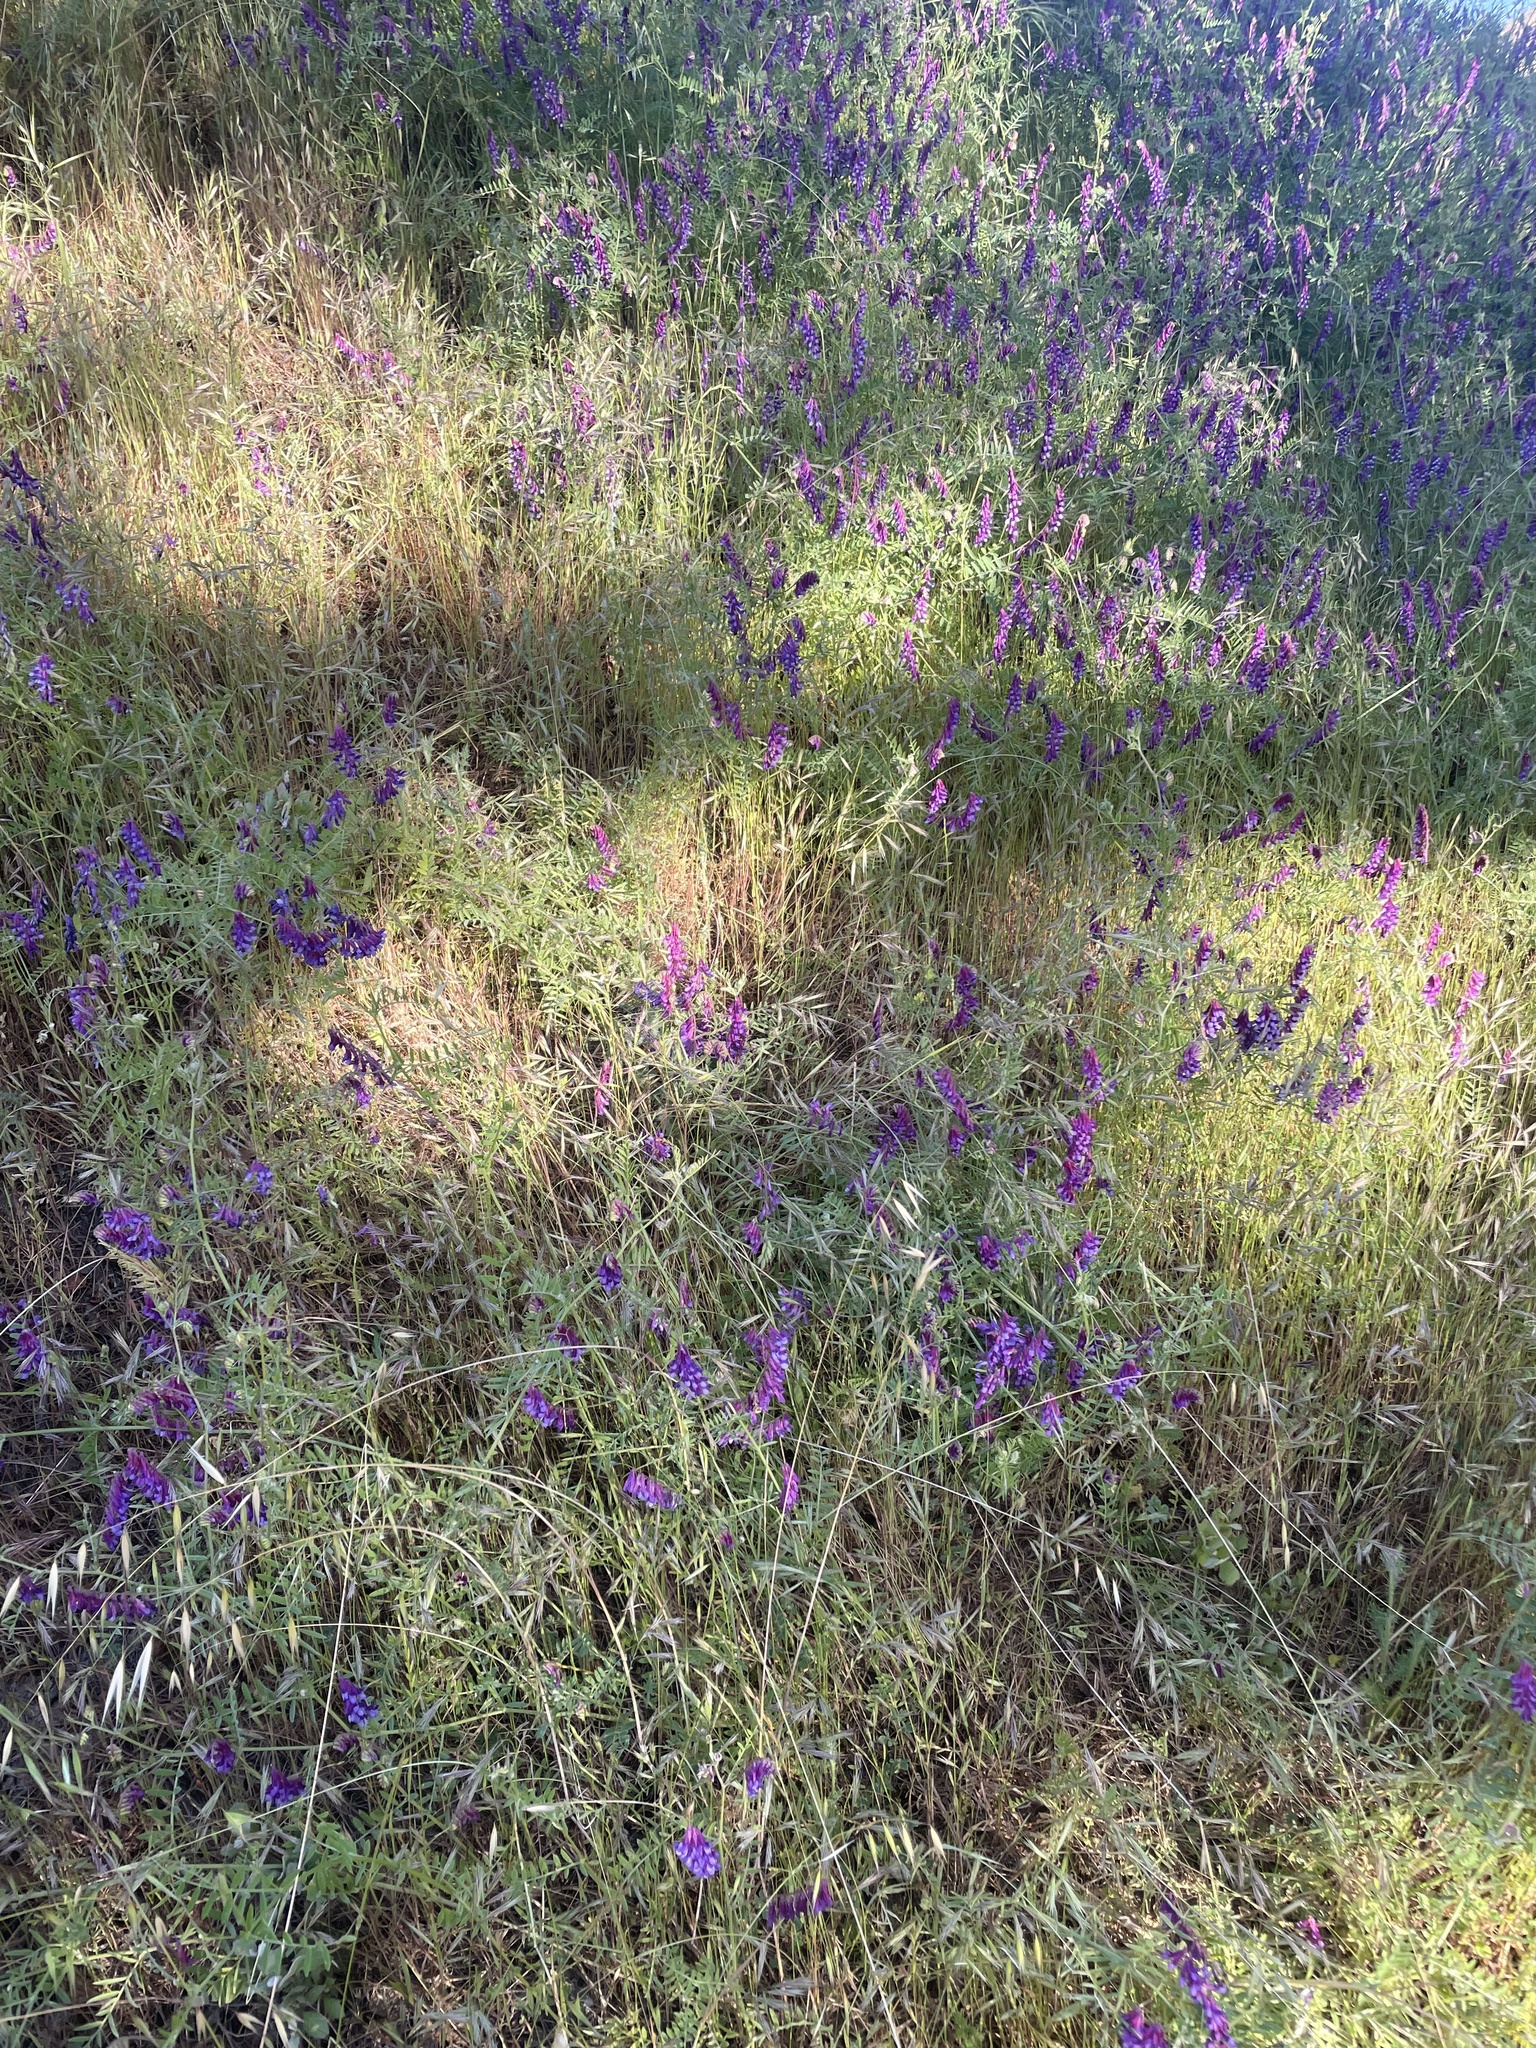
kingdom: Plantae
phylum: Tracheophyta
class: Magnoliopsida
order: Fabales
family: Fabaceae
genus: Vicia
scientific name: Vicia villosa
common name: Fodder vetch
